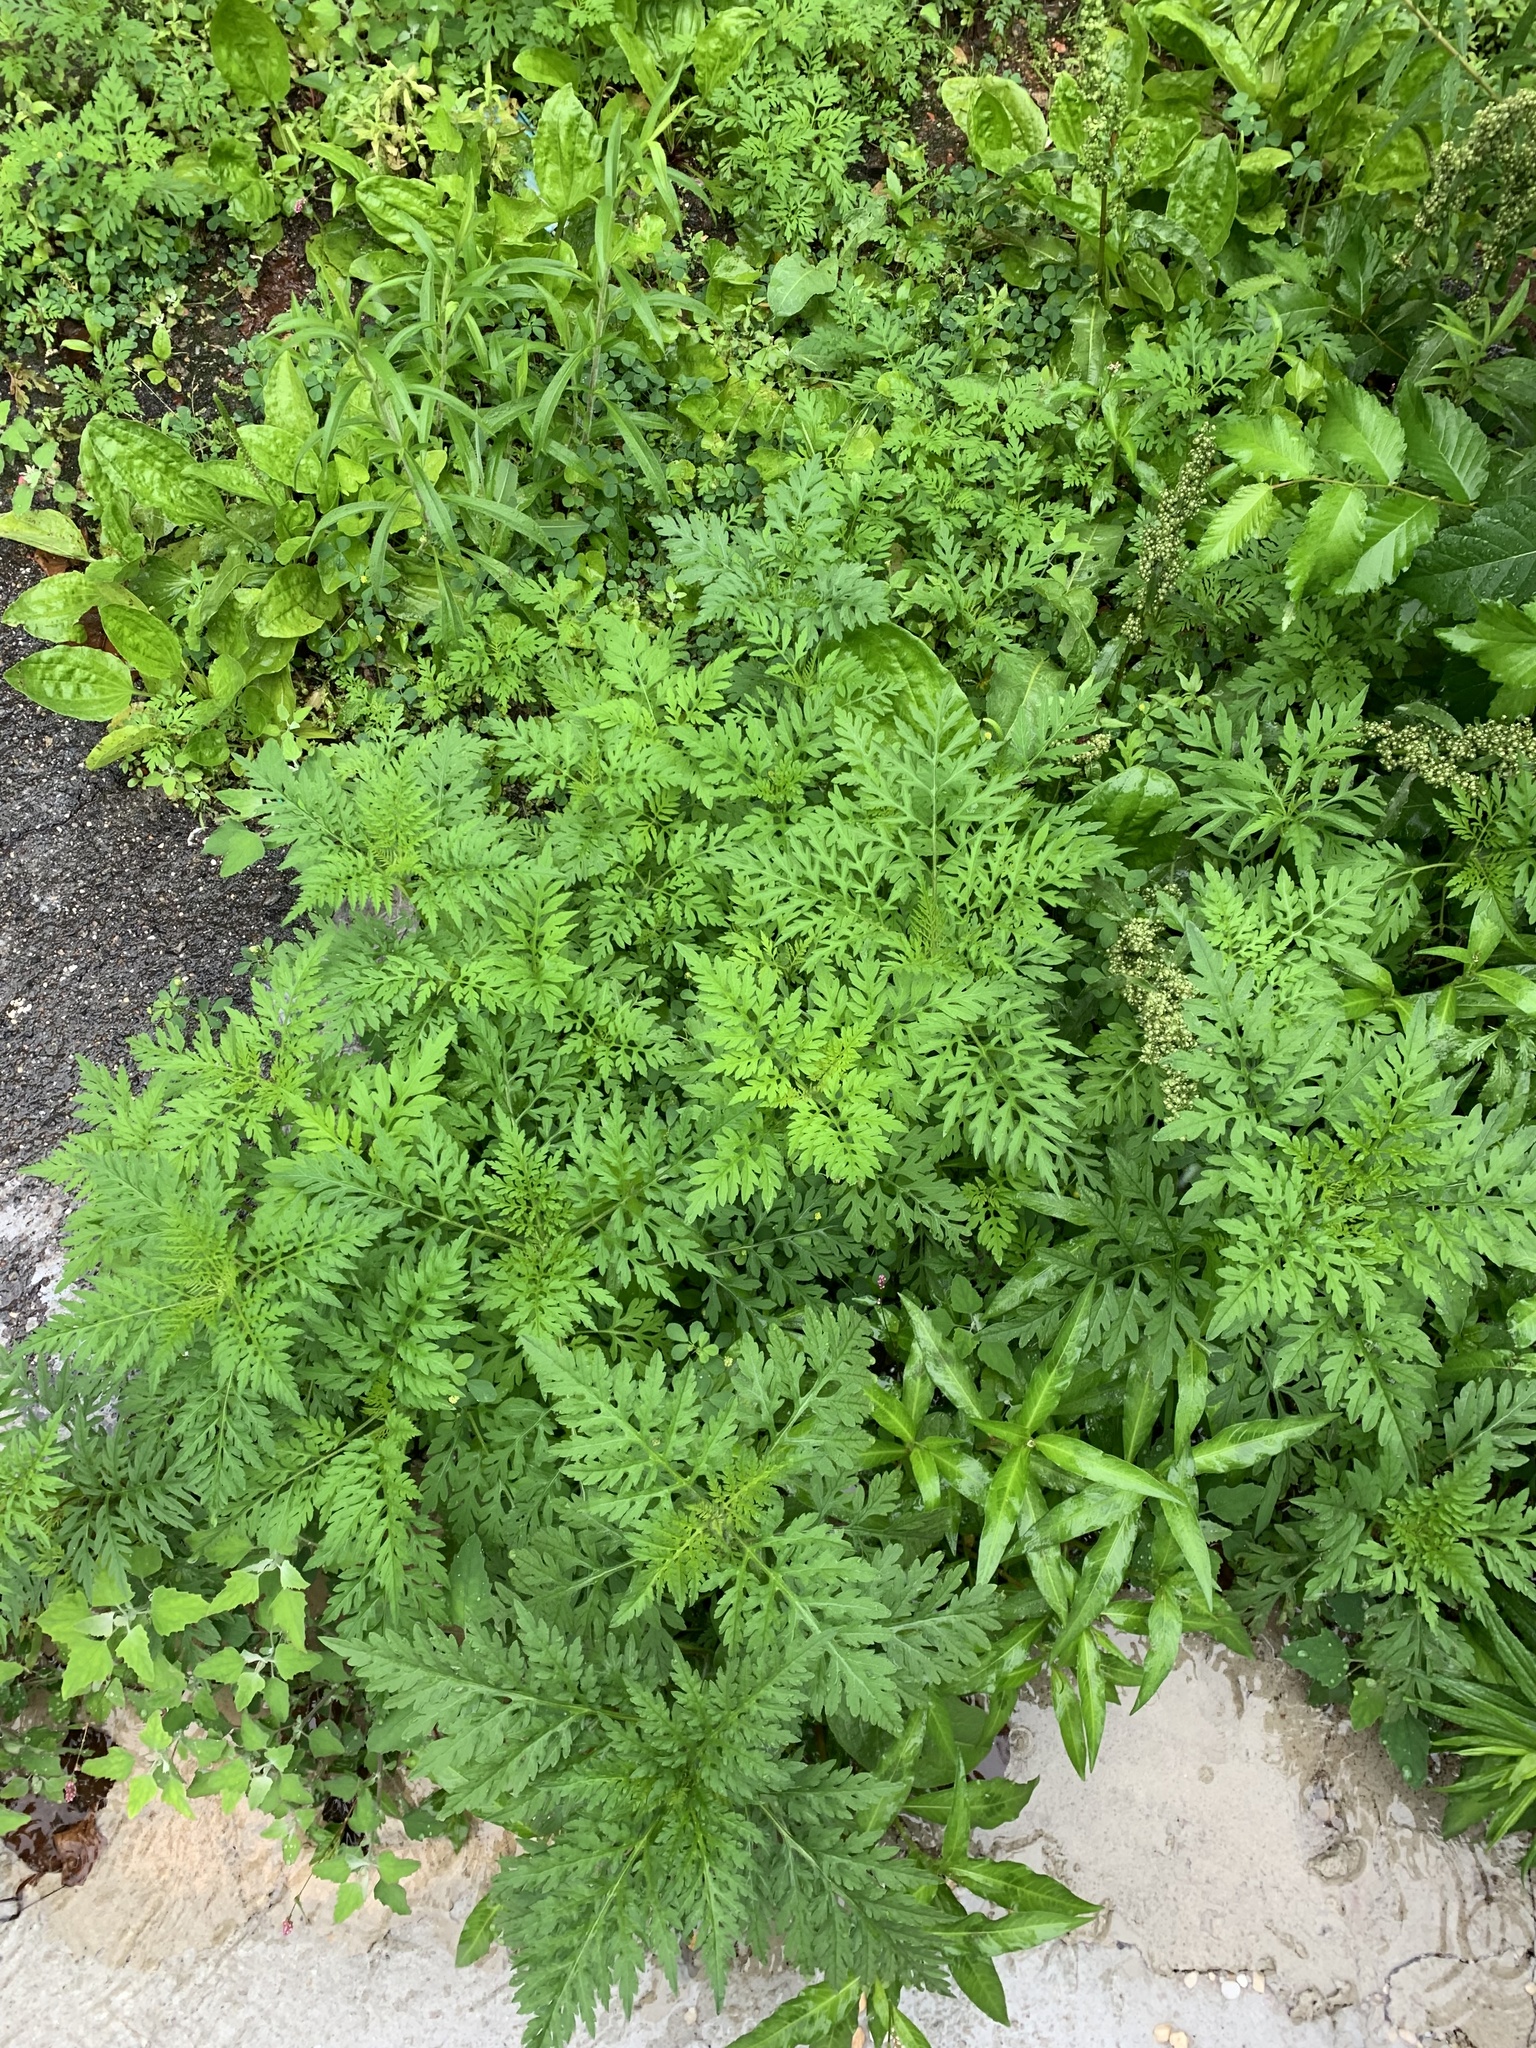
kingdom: Plantae
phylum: Tracheophyta
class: Magnoliopsida
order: Asterales
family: Asteraceae
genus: Ambrosia
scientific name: Ambrosia artemisiifolia
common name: Annual ragweed
